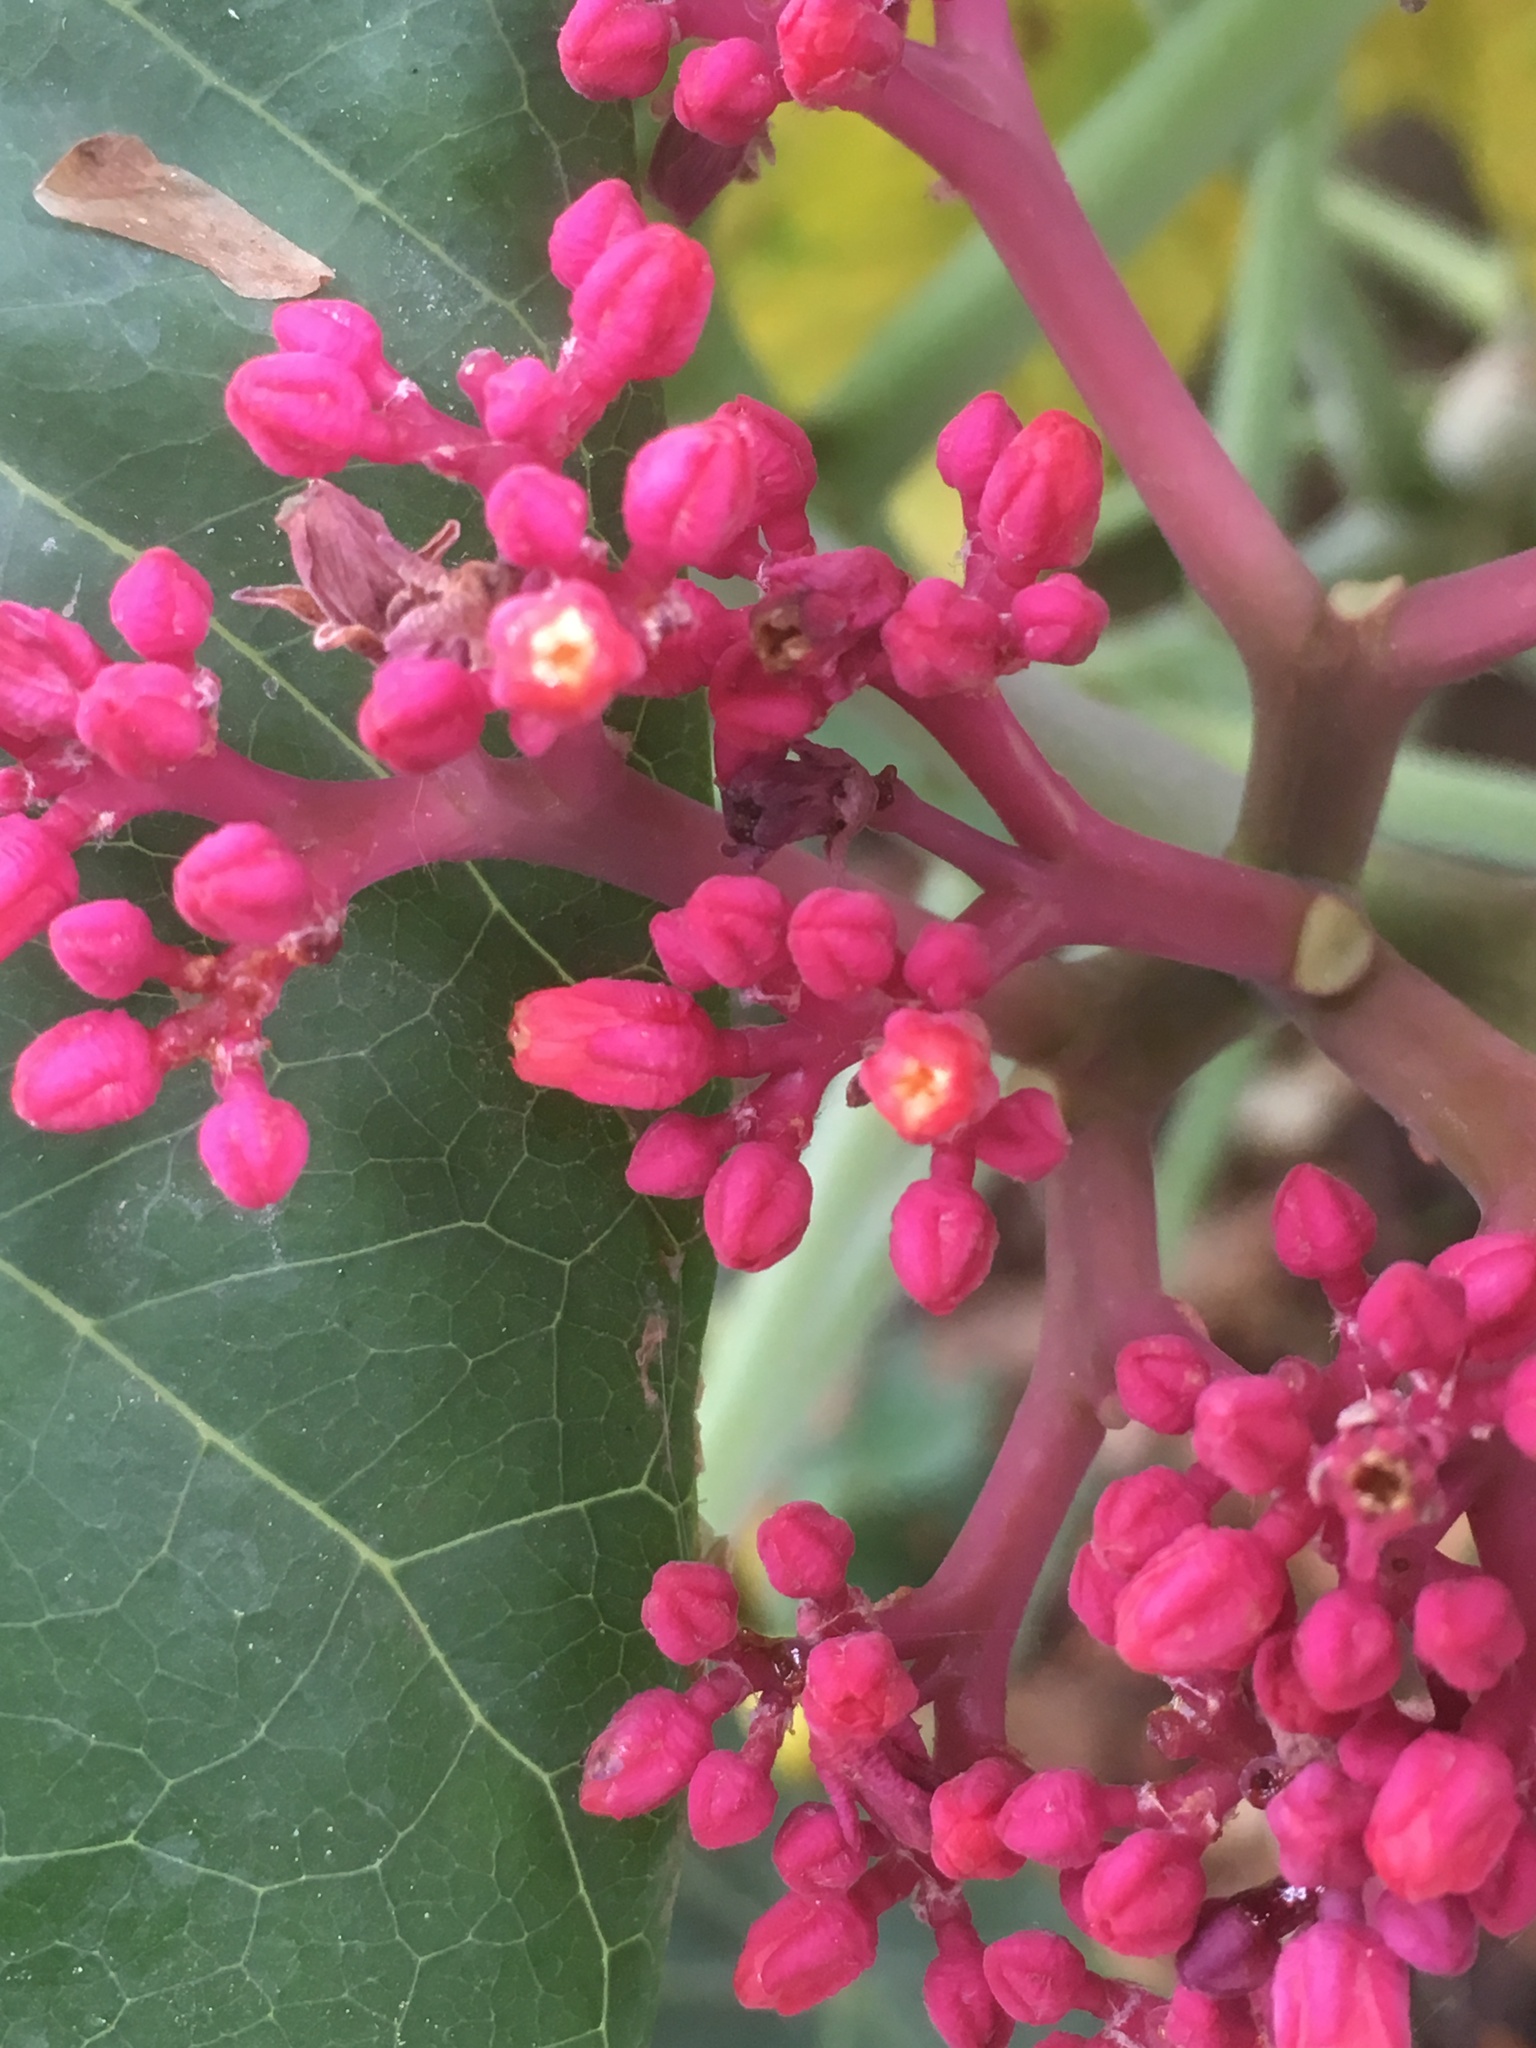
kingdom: Plantae
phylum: Tracheophyta
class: Magnoliopsida
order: Malpighiales
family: Euphorbiaceae
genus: Jatropha
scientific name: Jatropha chazaroi
